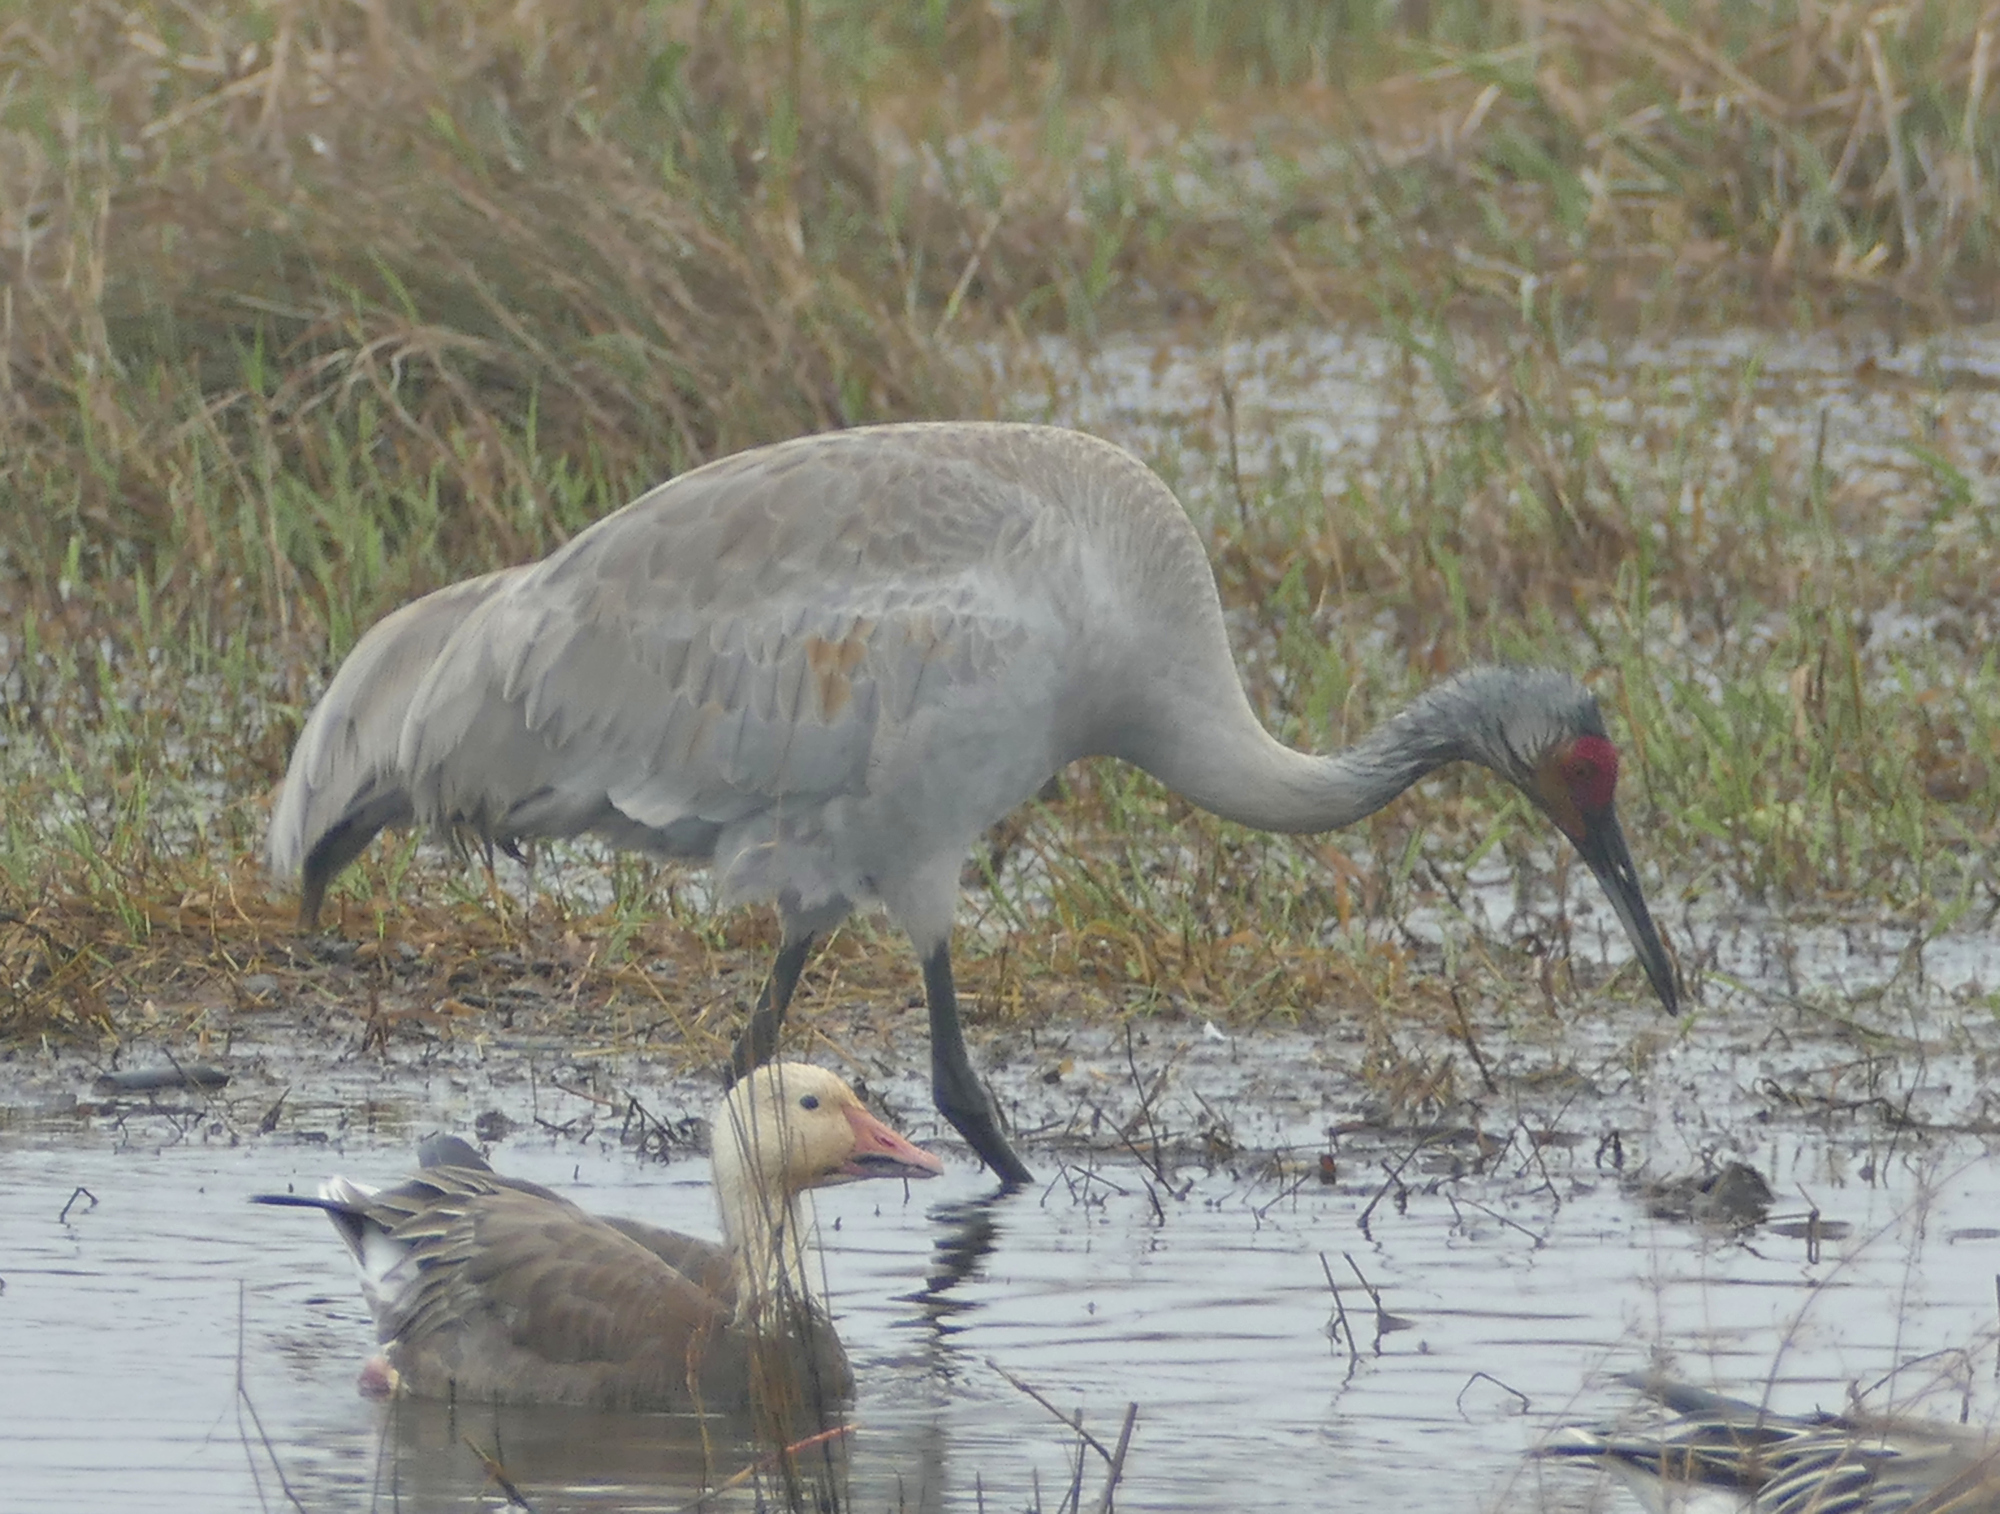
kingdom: Animalia
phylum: Chordata
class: Aves
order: Gruiformes
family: Gruidae
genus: Grus
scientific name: Grus canadensis
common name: Sandhill crane
